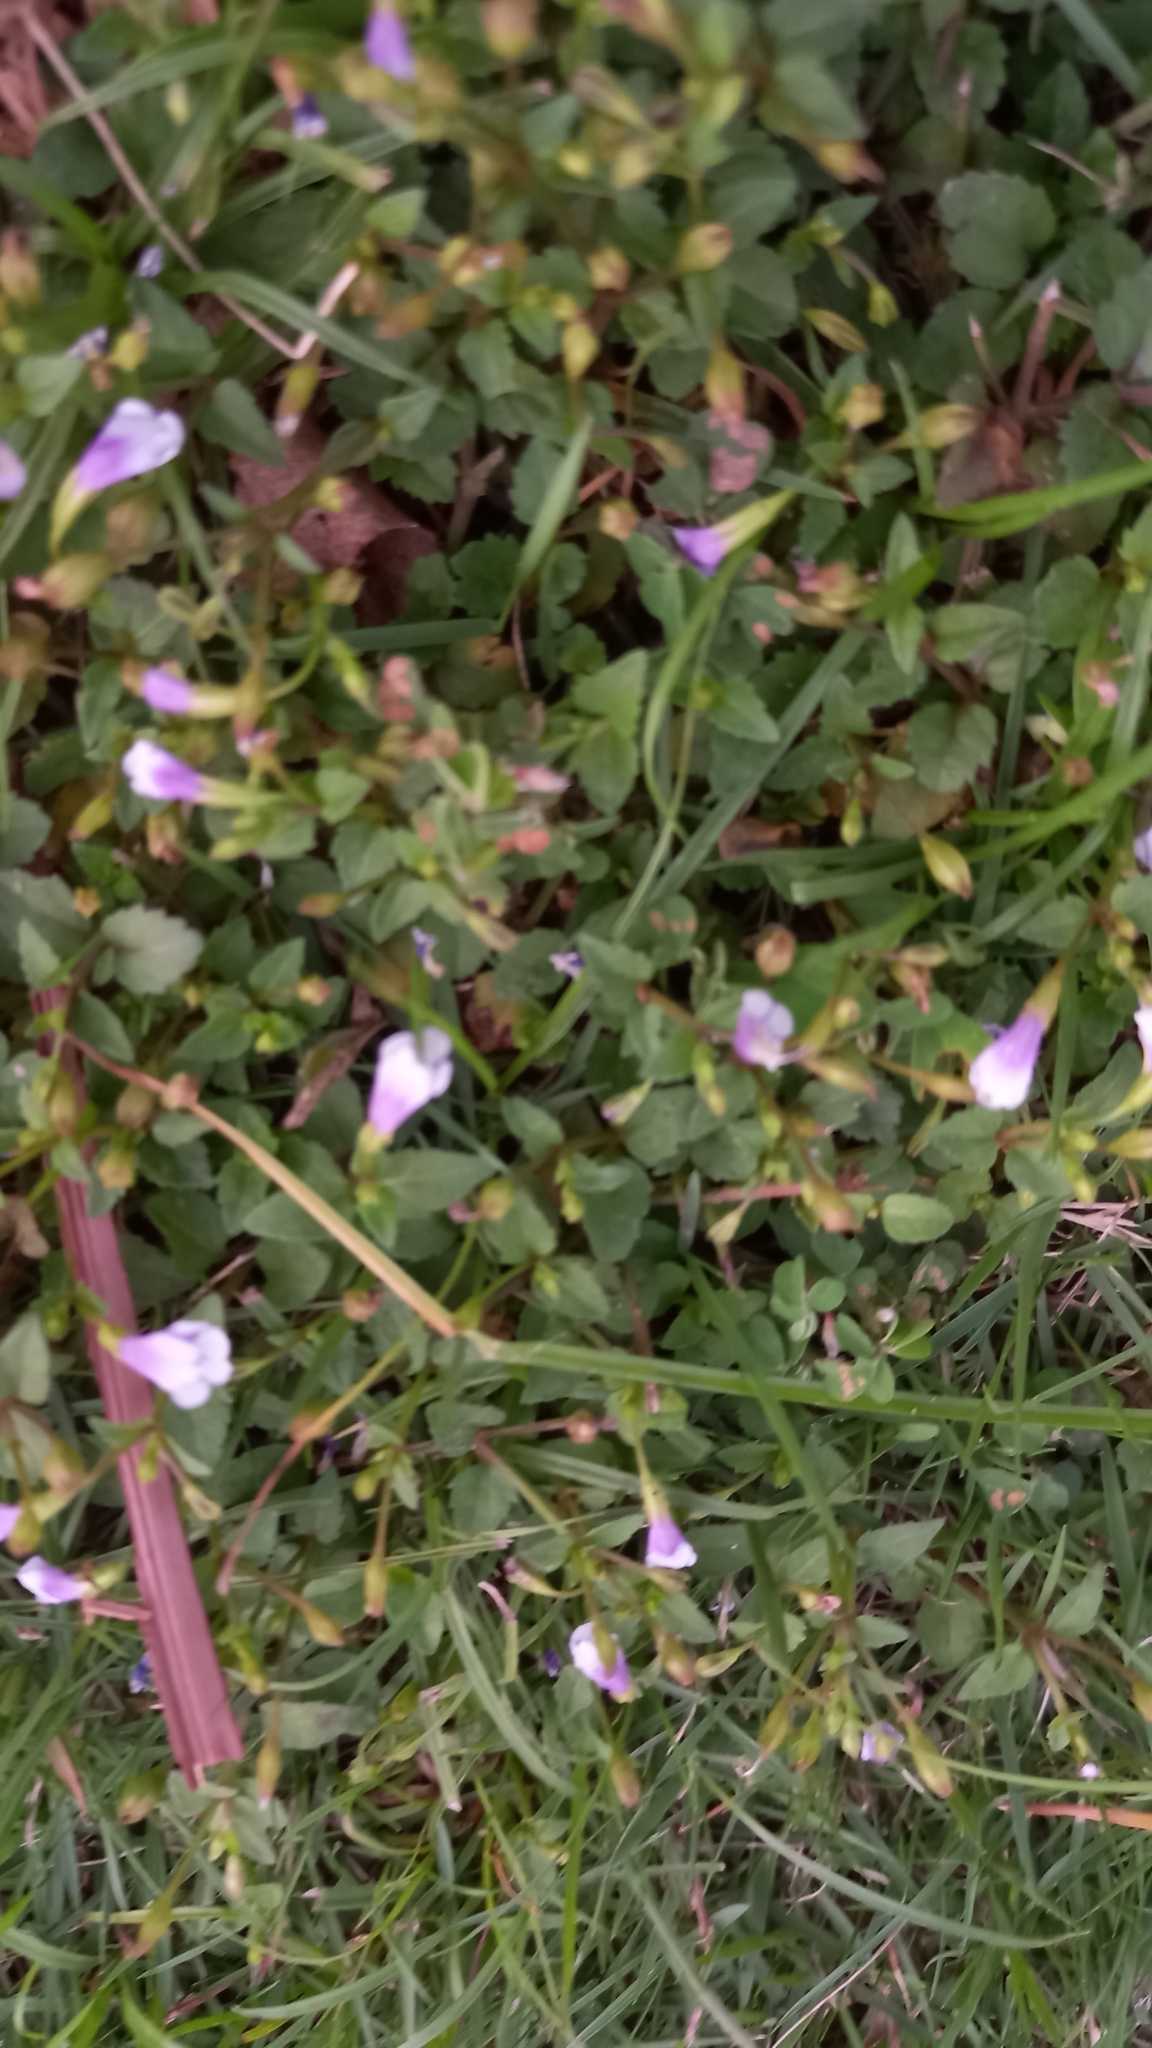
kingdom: Plantae
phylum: Tracheophyta
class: Magnoliopsida
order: Lamiales
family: Linderniaceae
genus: Torenia
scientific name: Torenia crustacea
